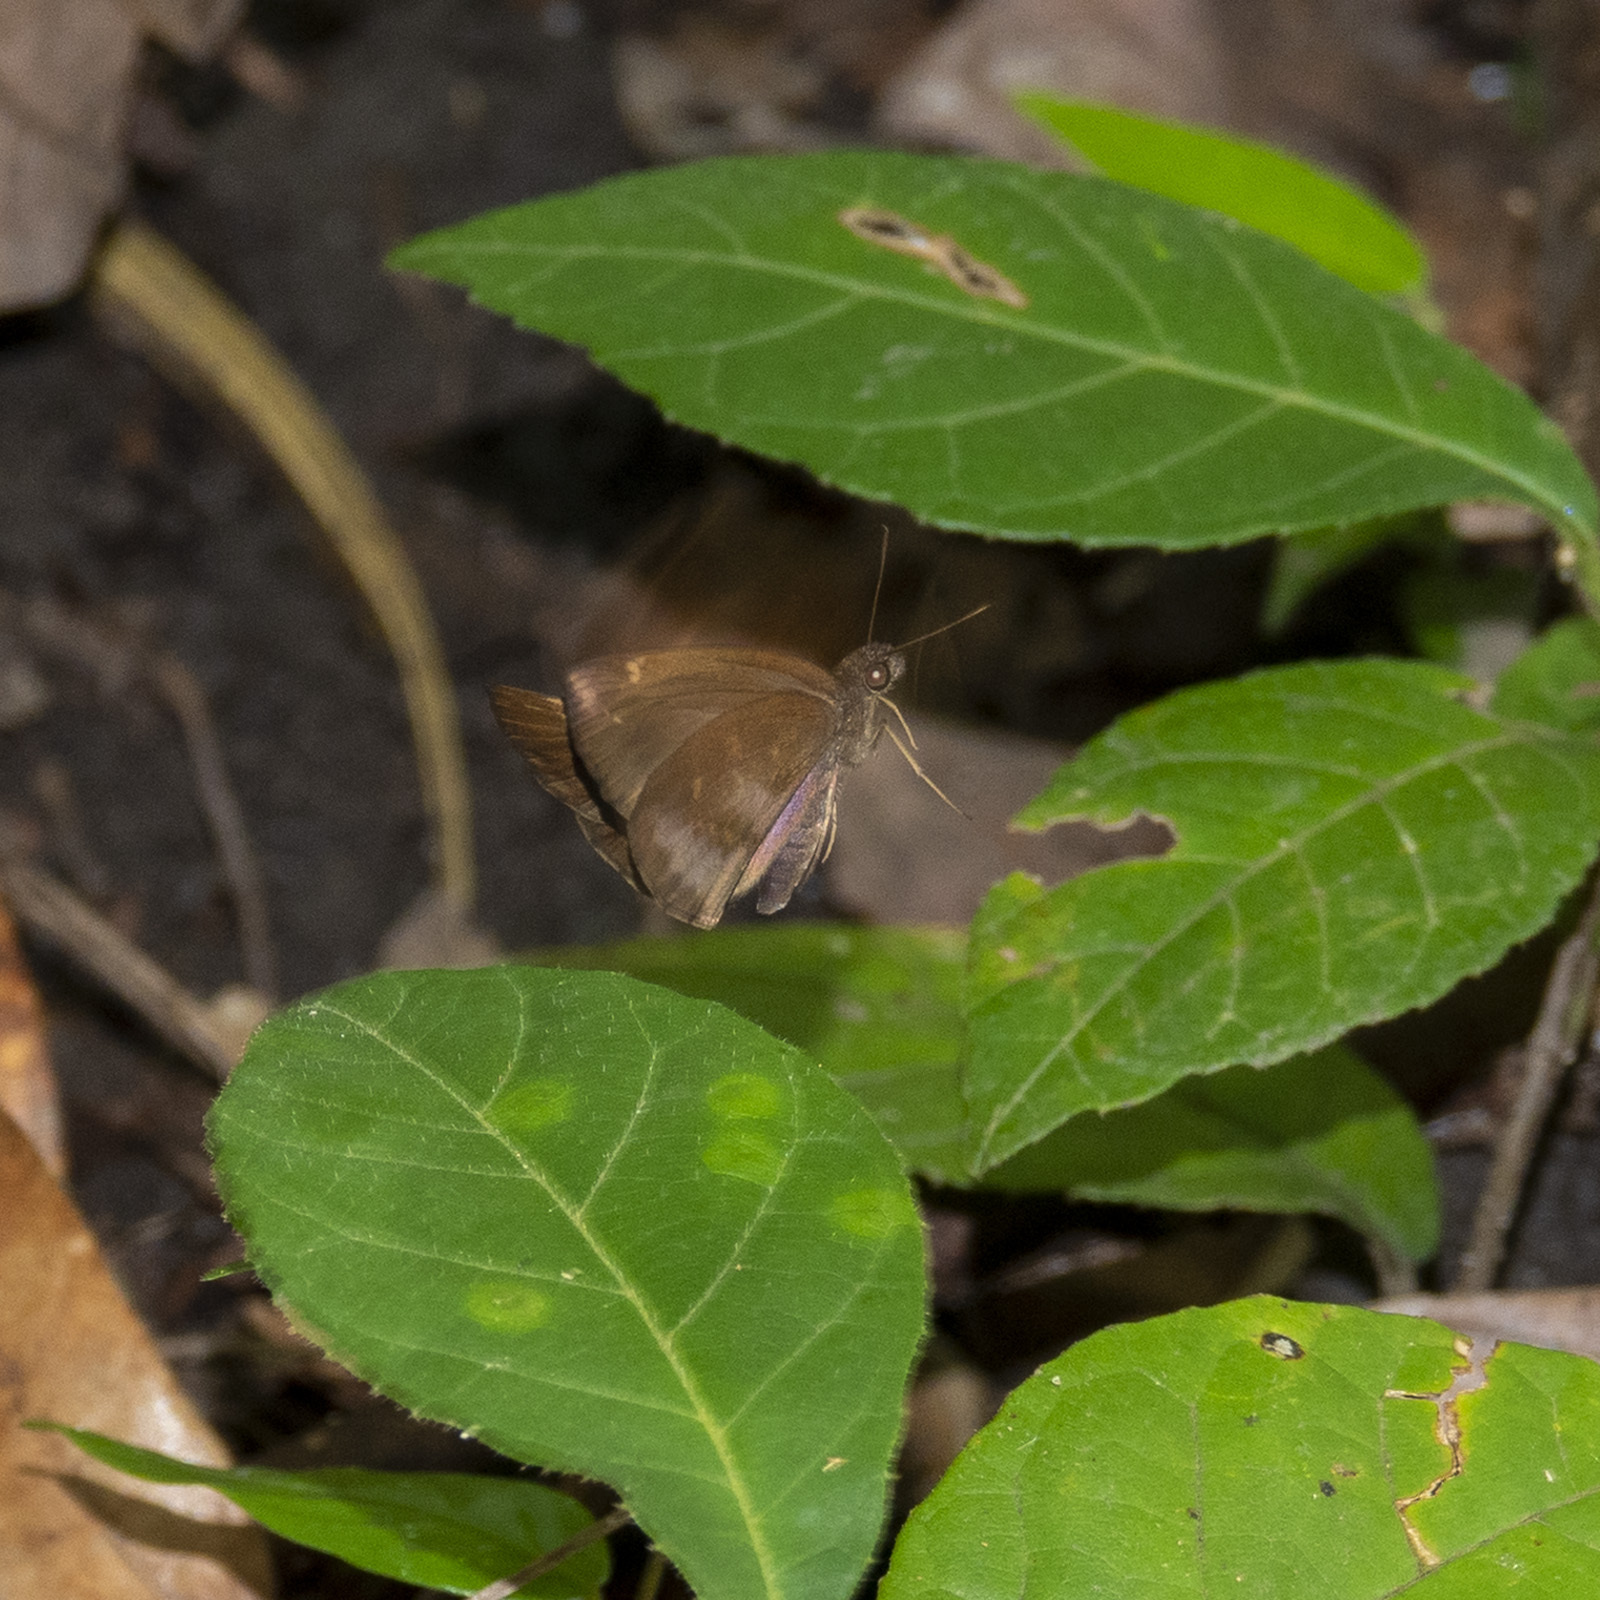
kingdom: Animalia
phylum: Arthropoda
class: Insecta
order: Lepidoptera
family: Hesperiidae
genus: Psolos
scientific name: Psolos fuligo
